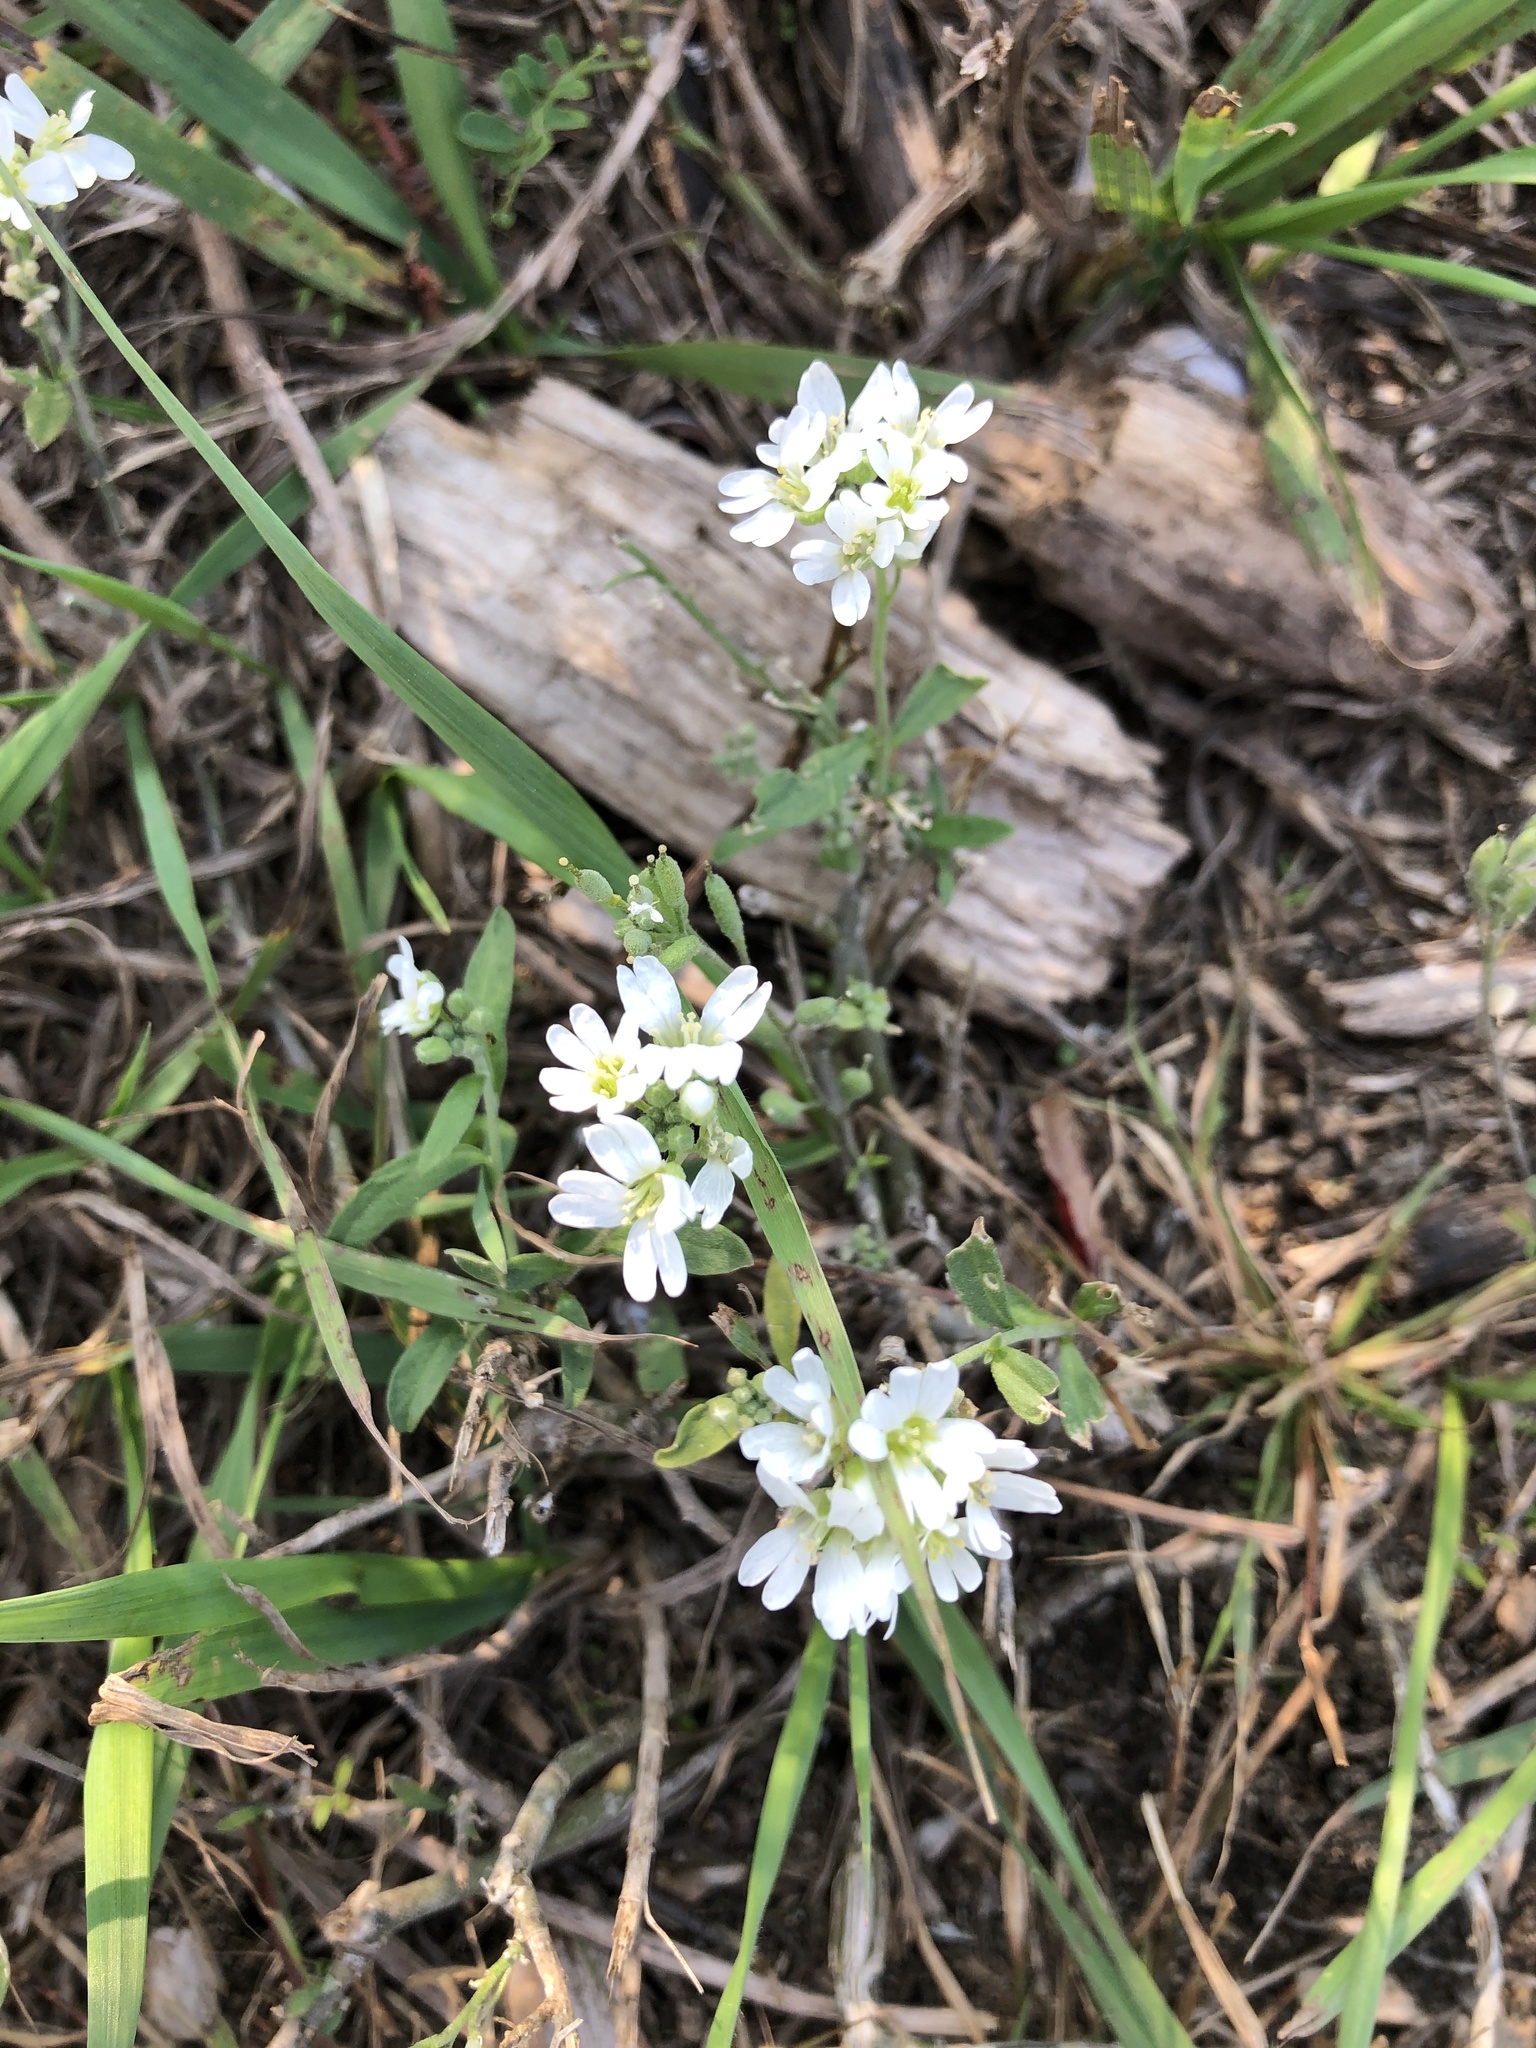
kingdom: Plantae
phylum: Tracheophyta
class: Magnoliopsida
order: Brassicales
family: Brassicaceae
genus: Berteroa
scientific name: Berteroa incana
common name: Hoary alison
